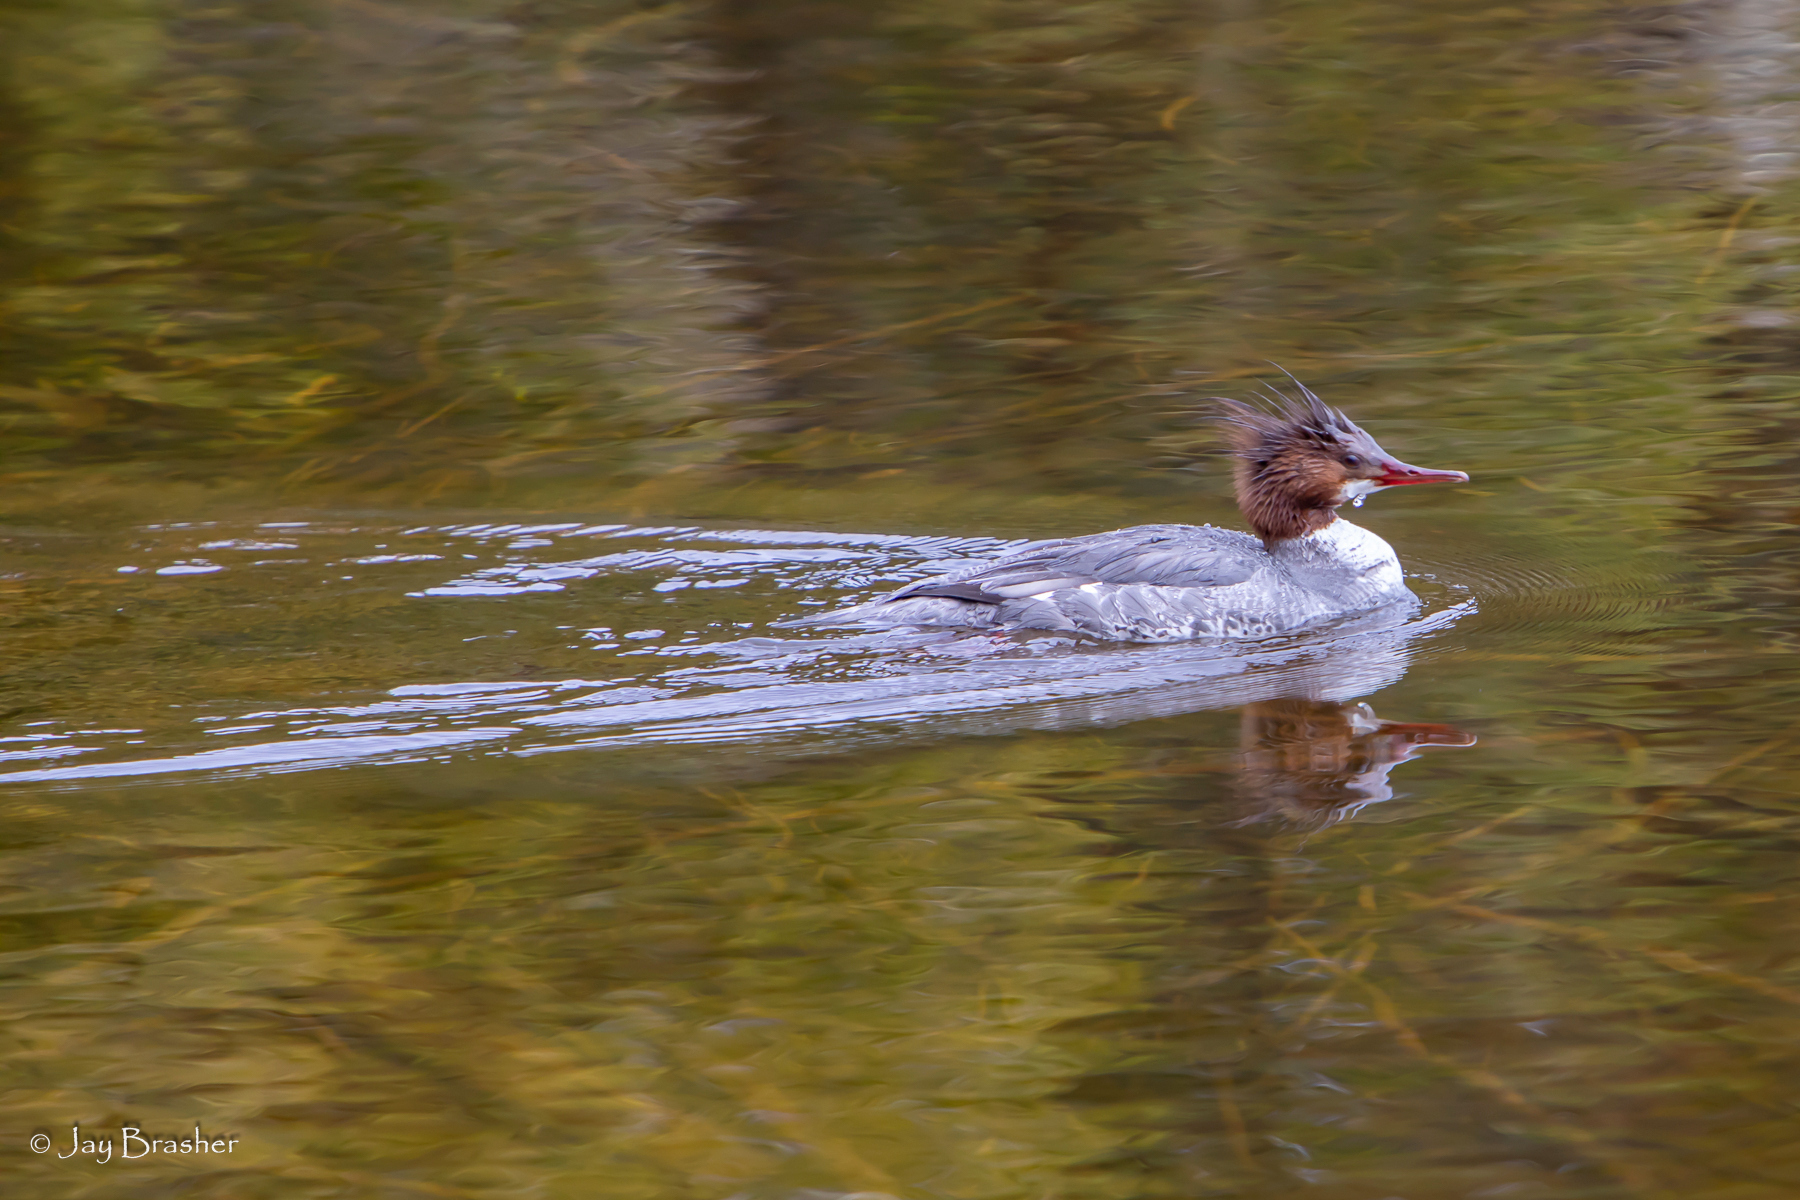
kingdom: Animalia
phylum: Chordata
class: Aves
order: Anseriformes
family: Anatidae
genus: Mergus
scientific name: Mergus merganser
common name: Common merganser
